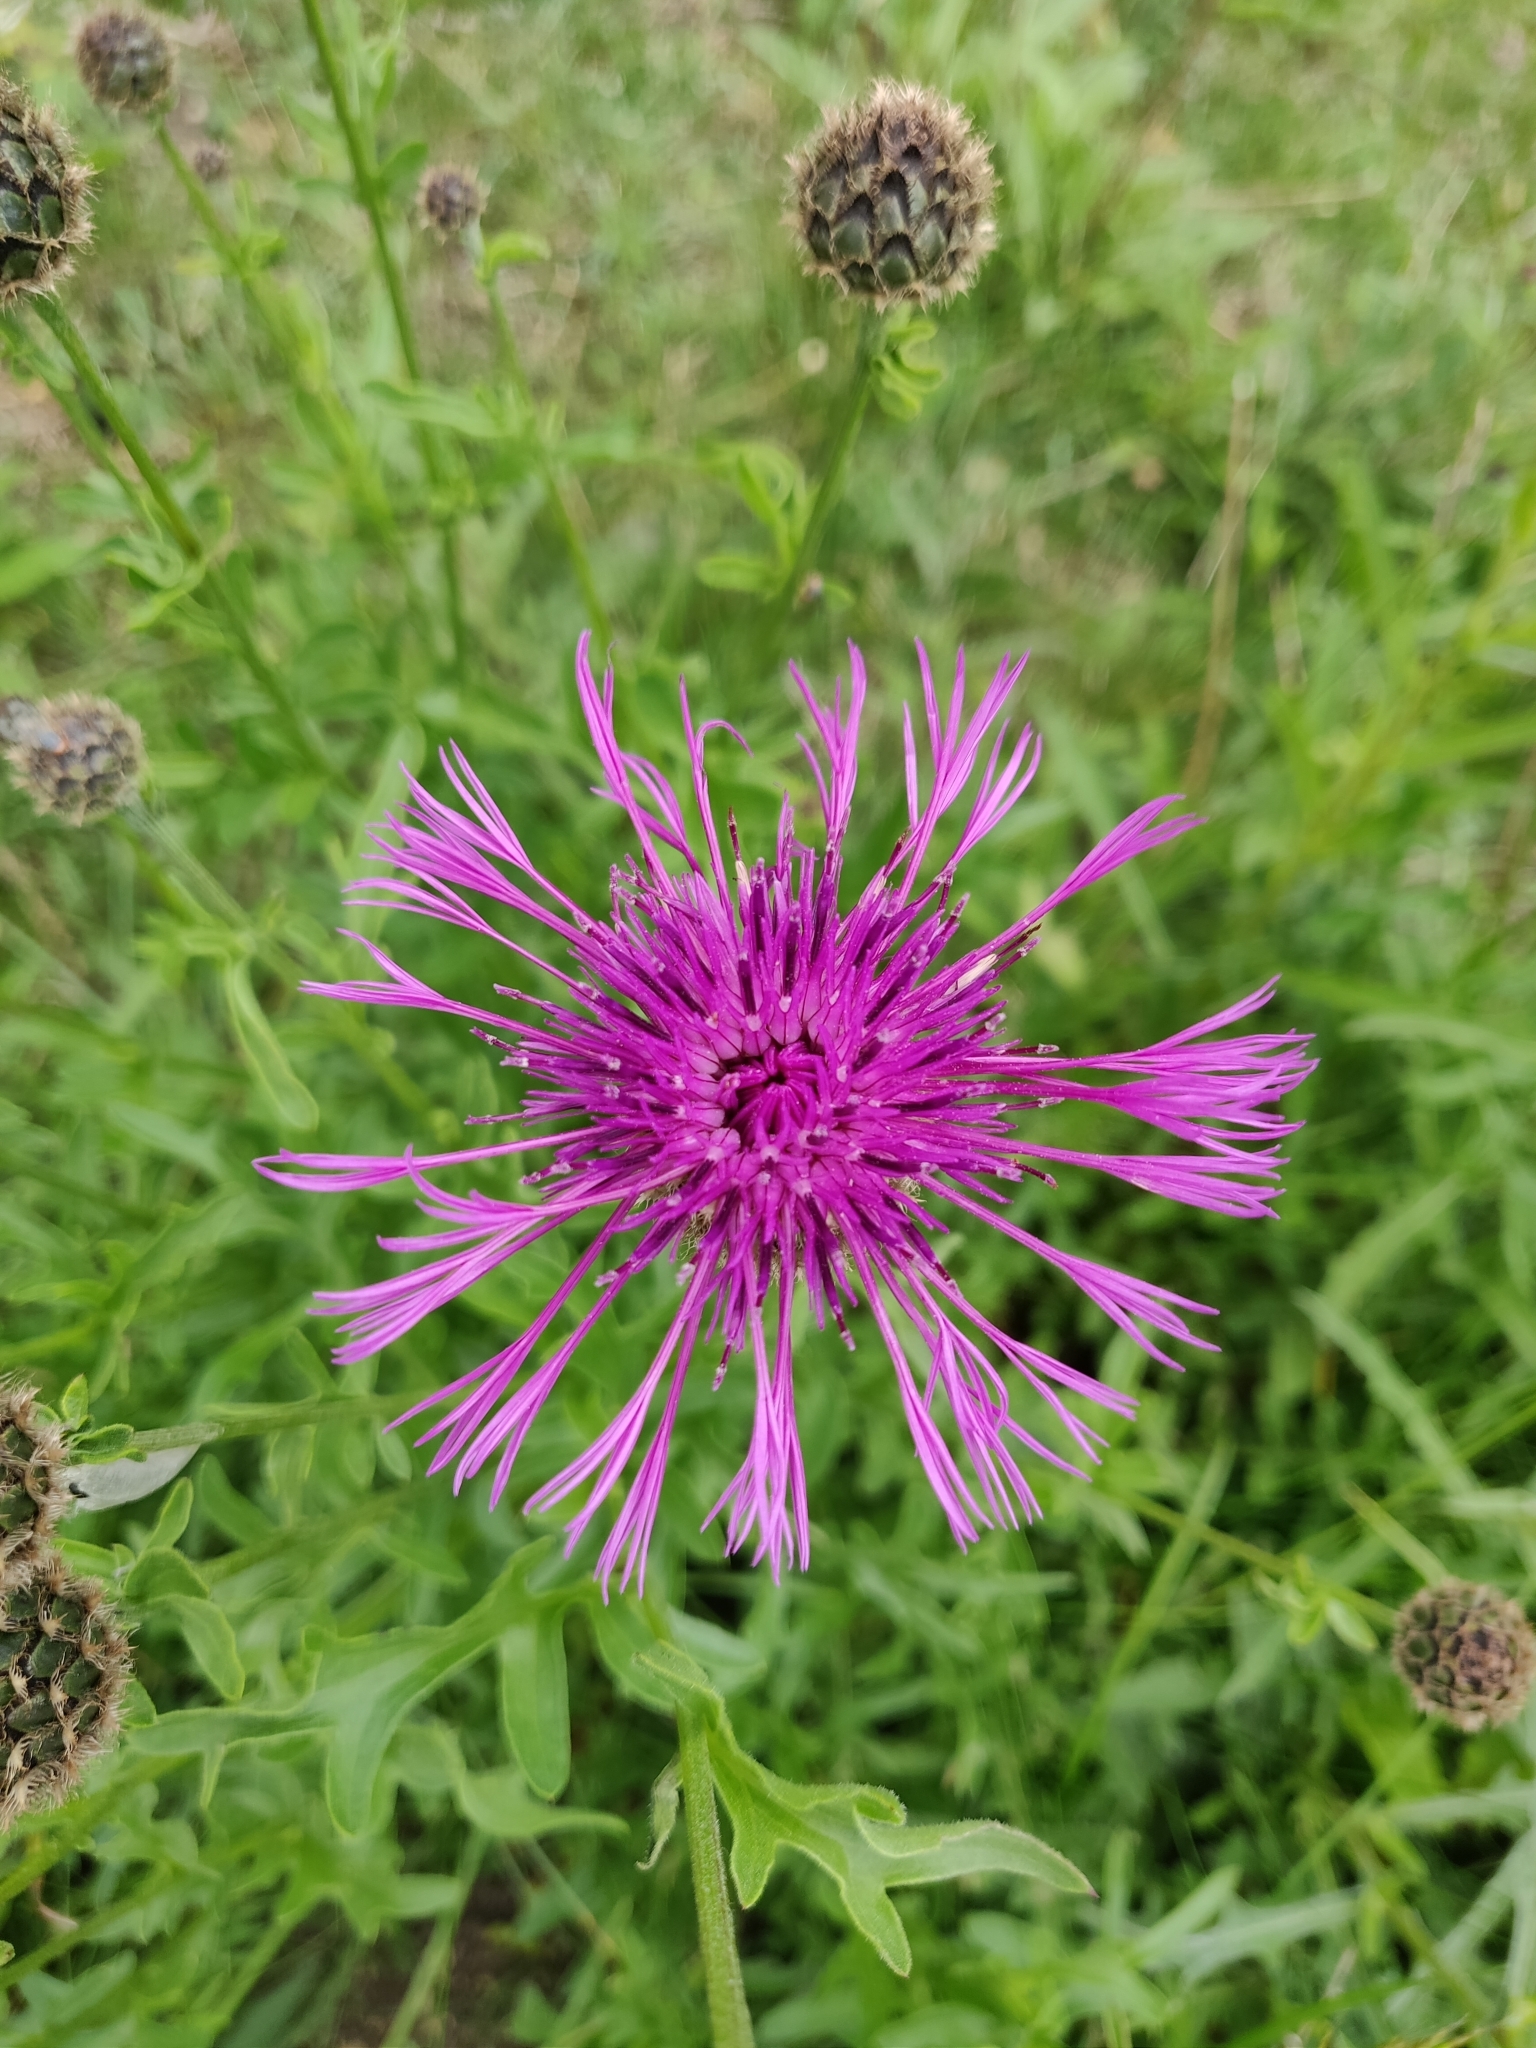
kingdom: Plantae
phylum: Tracheophyta
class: Magnoliopsida
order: Asterales
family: Asteraceae
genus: Centaurea
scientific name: Centaurea scabiosa
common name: Greater knapweed
